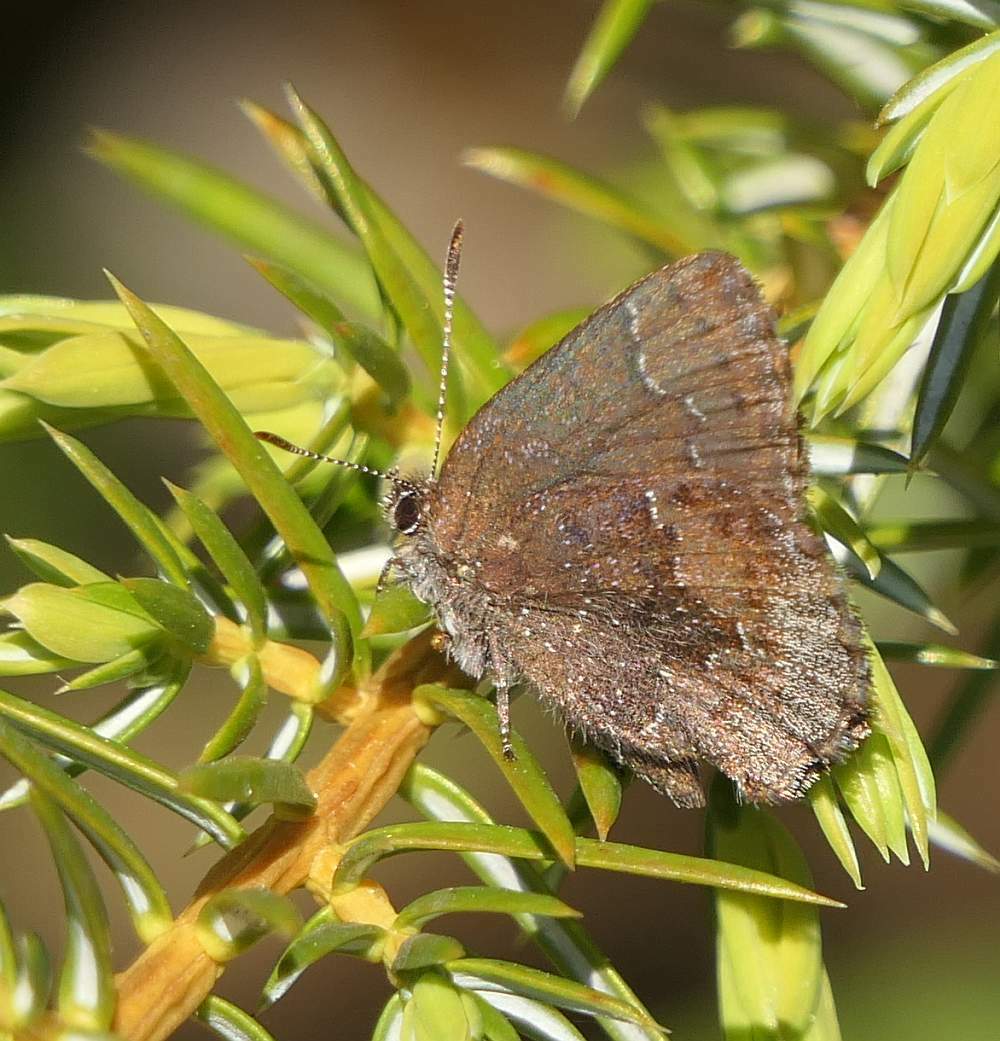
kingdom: Animalia
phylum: Arthropoda
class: Insecta
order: Lepidoptera
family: Lycaenidae
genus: Callophrys
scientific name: Callophrys polios
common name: Hoary elfin
